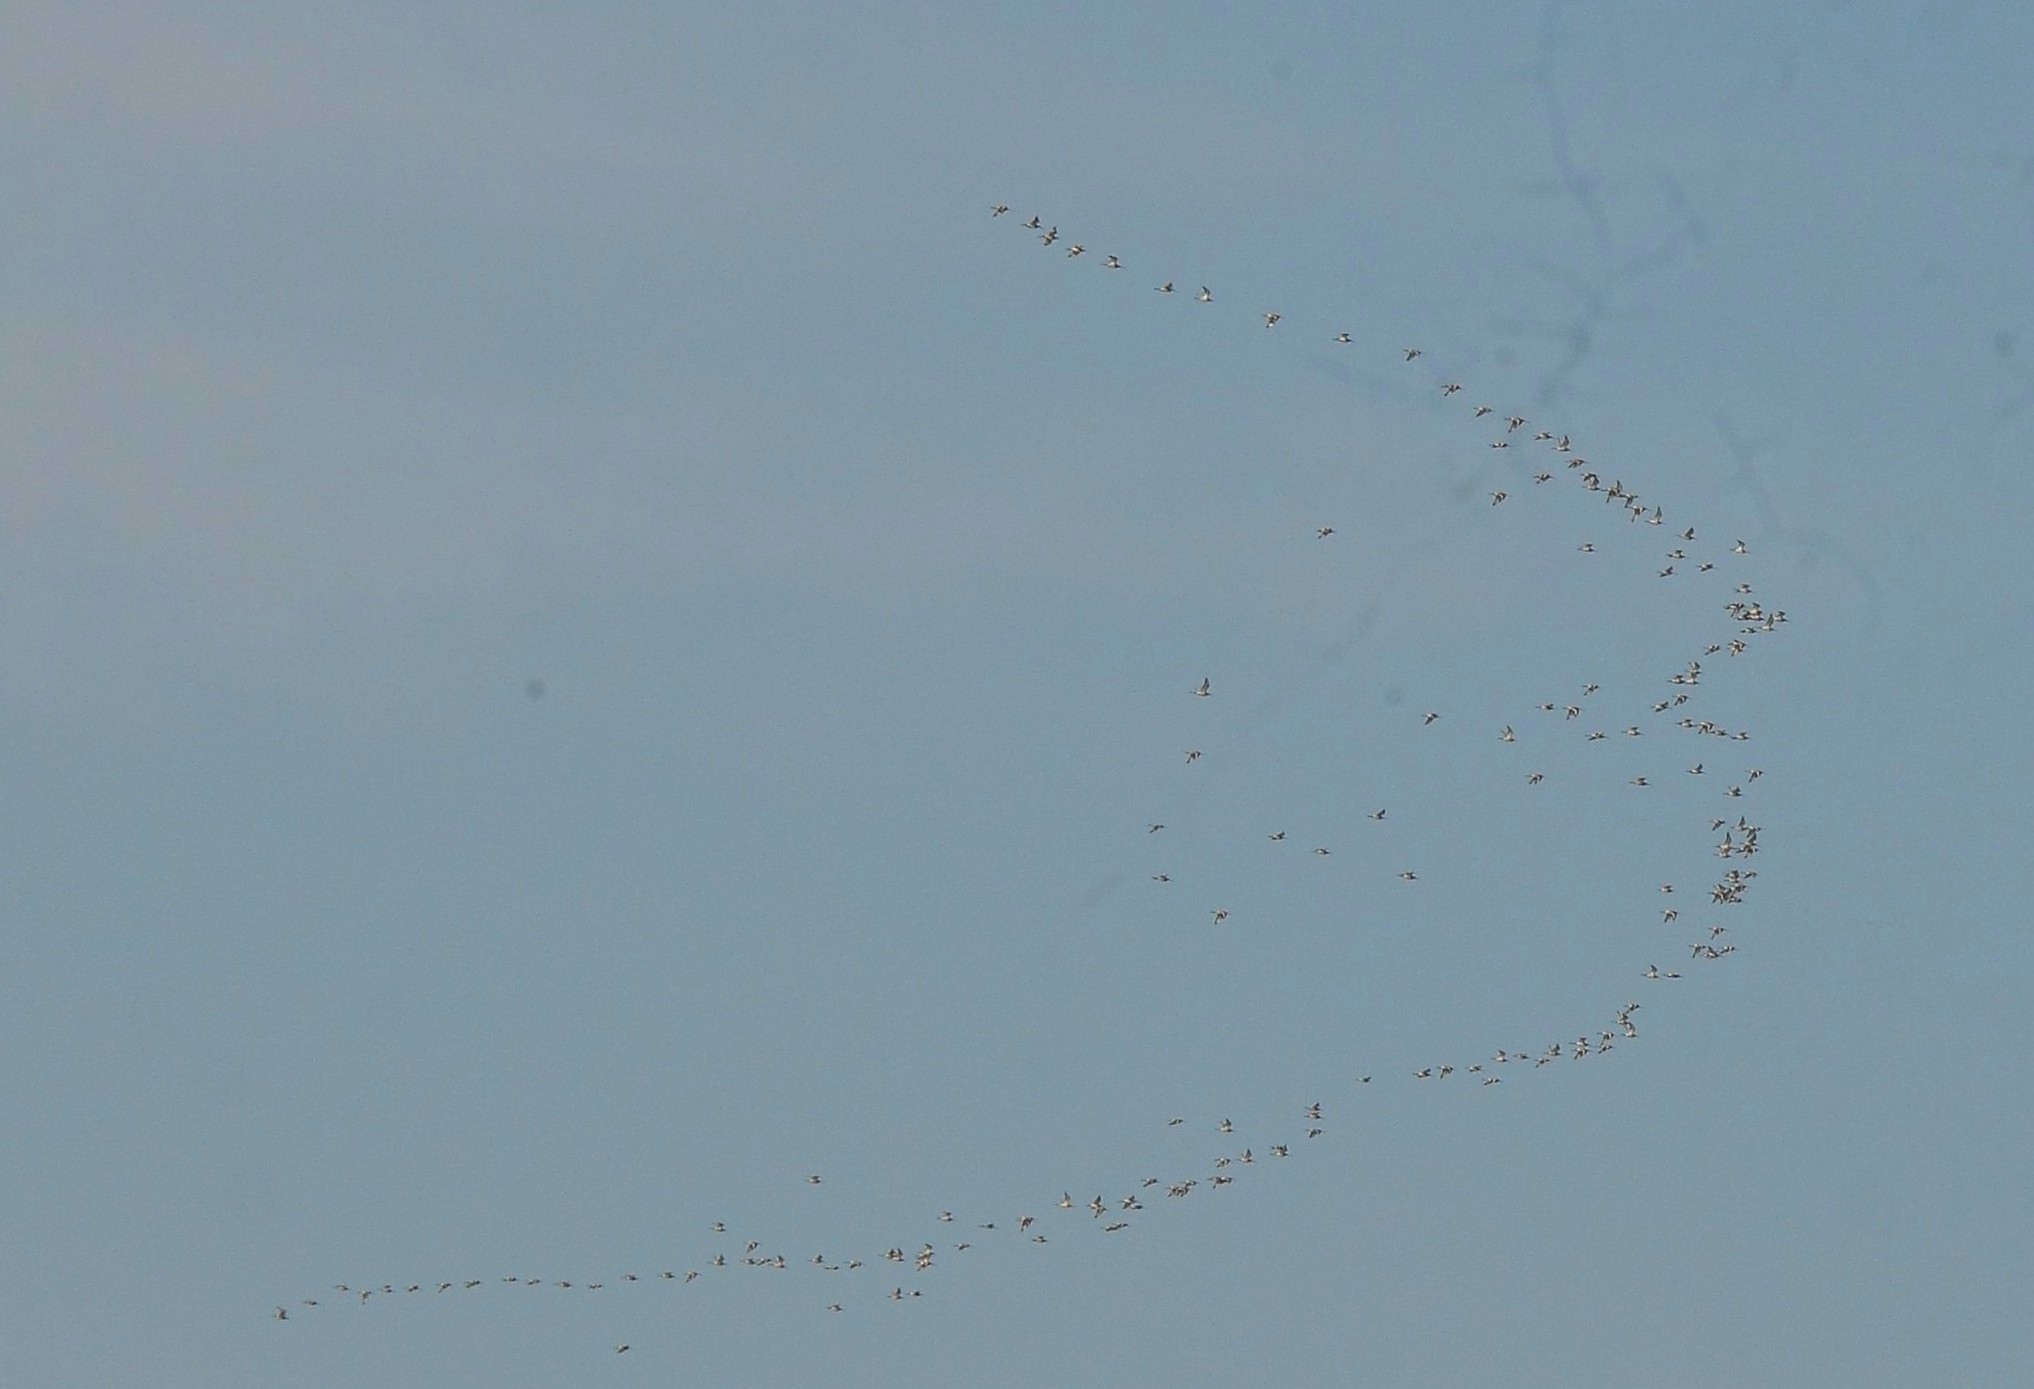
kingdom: Animalia
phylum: Chordata
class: Aves
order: Charadriiformes
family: Scolopacidae
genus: Limosa
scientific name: Limosa limosa
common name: Black-tailed godwit
